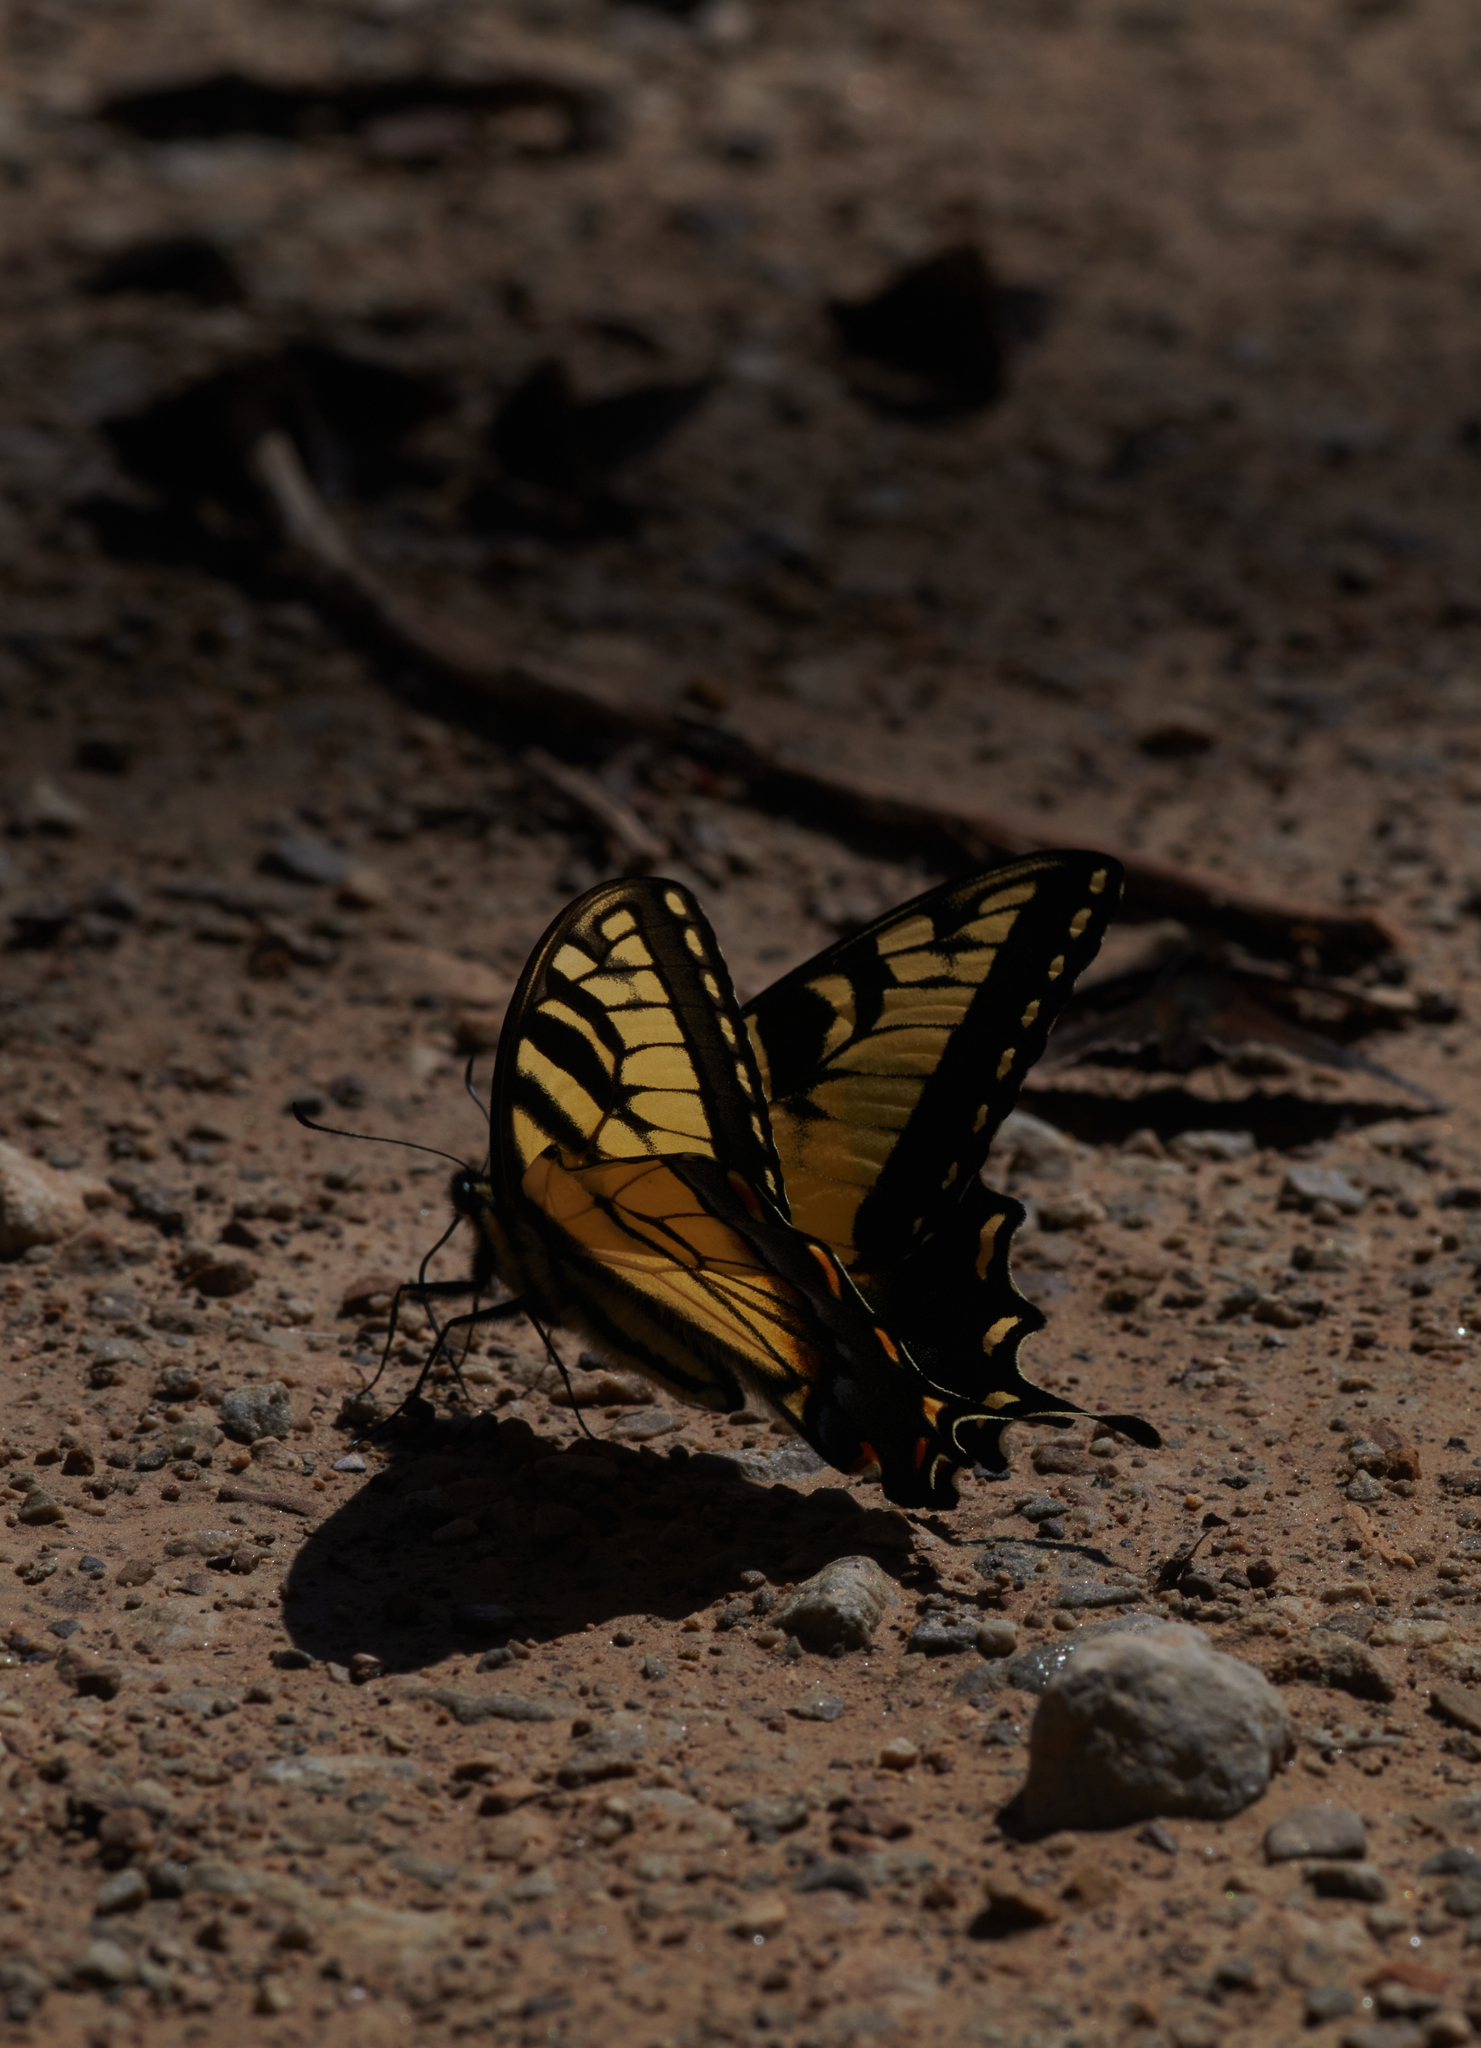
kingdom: Animalia
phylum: Arthropoda
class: Insecta
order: Lepidoptera
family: Papilionidae
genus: Papilio
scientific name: Papilio glaucus
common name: Tiger swallowtail
